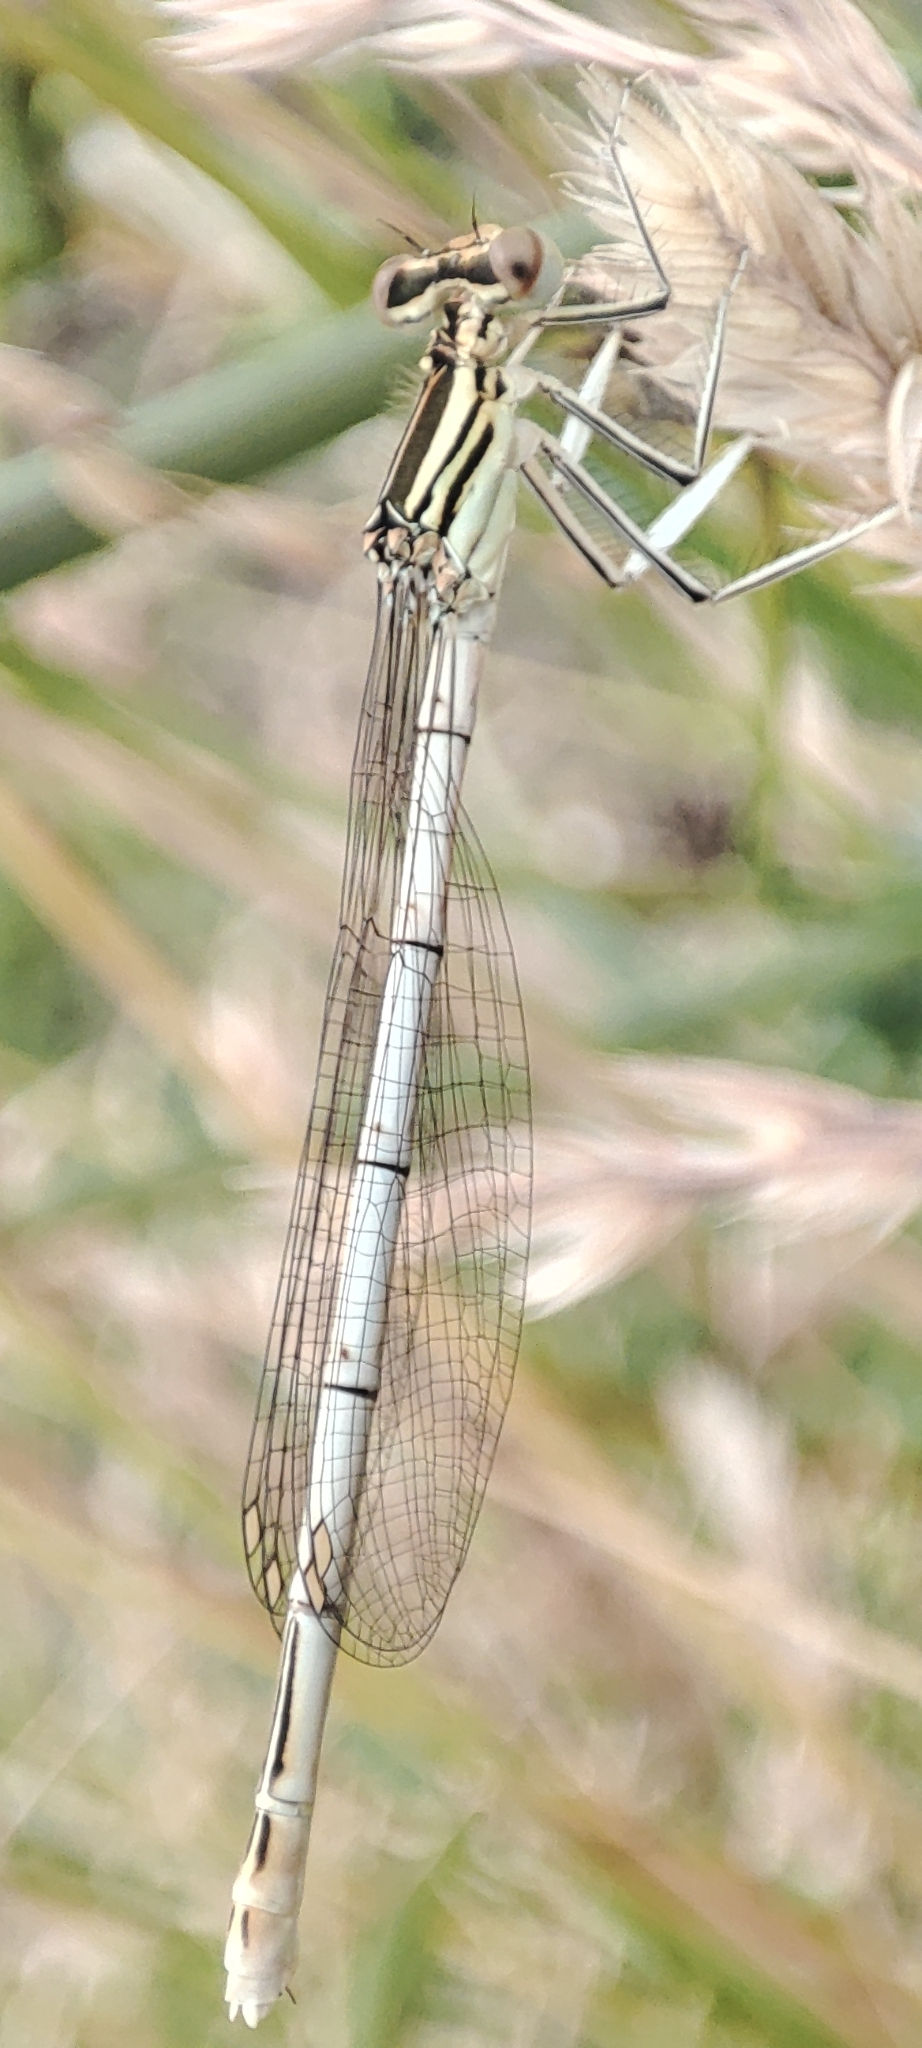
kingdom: Animalia
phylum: Arthropoda
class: Insecta
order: Odonata
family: Platycnemididae
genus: Platycnemis
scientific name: Platycnemis pennipes
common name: White-legged damselfly
